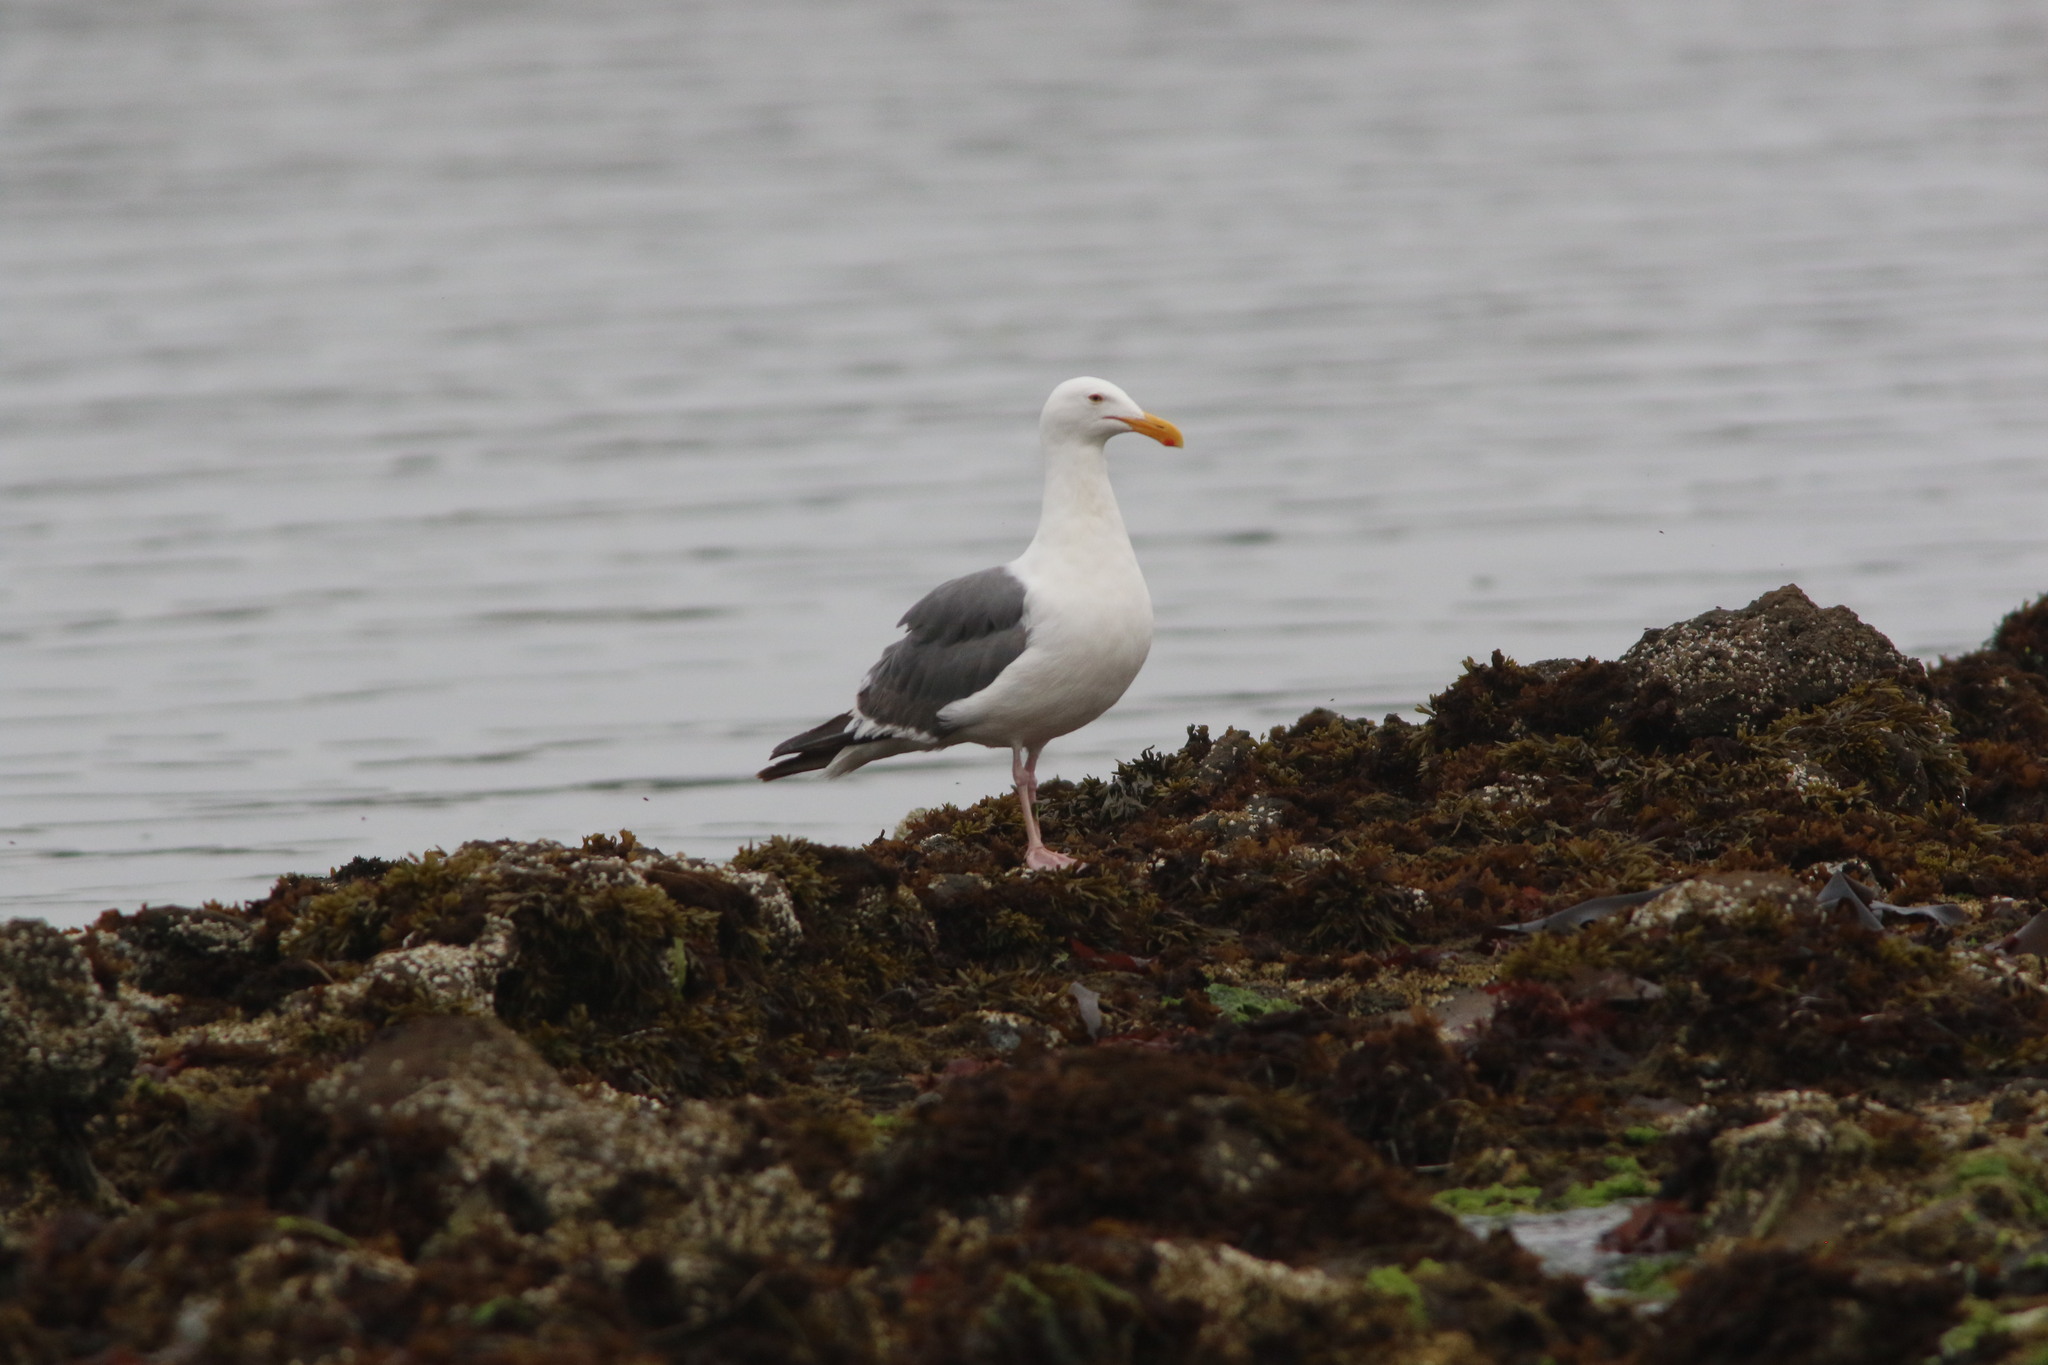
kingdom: Animalia
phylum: Chordata
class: Aves
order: Charadriiformes
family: Laridae
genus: Larus
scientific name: Larus occidentalis
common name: Western gull
